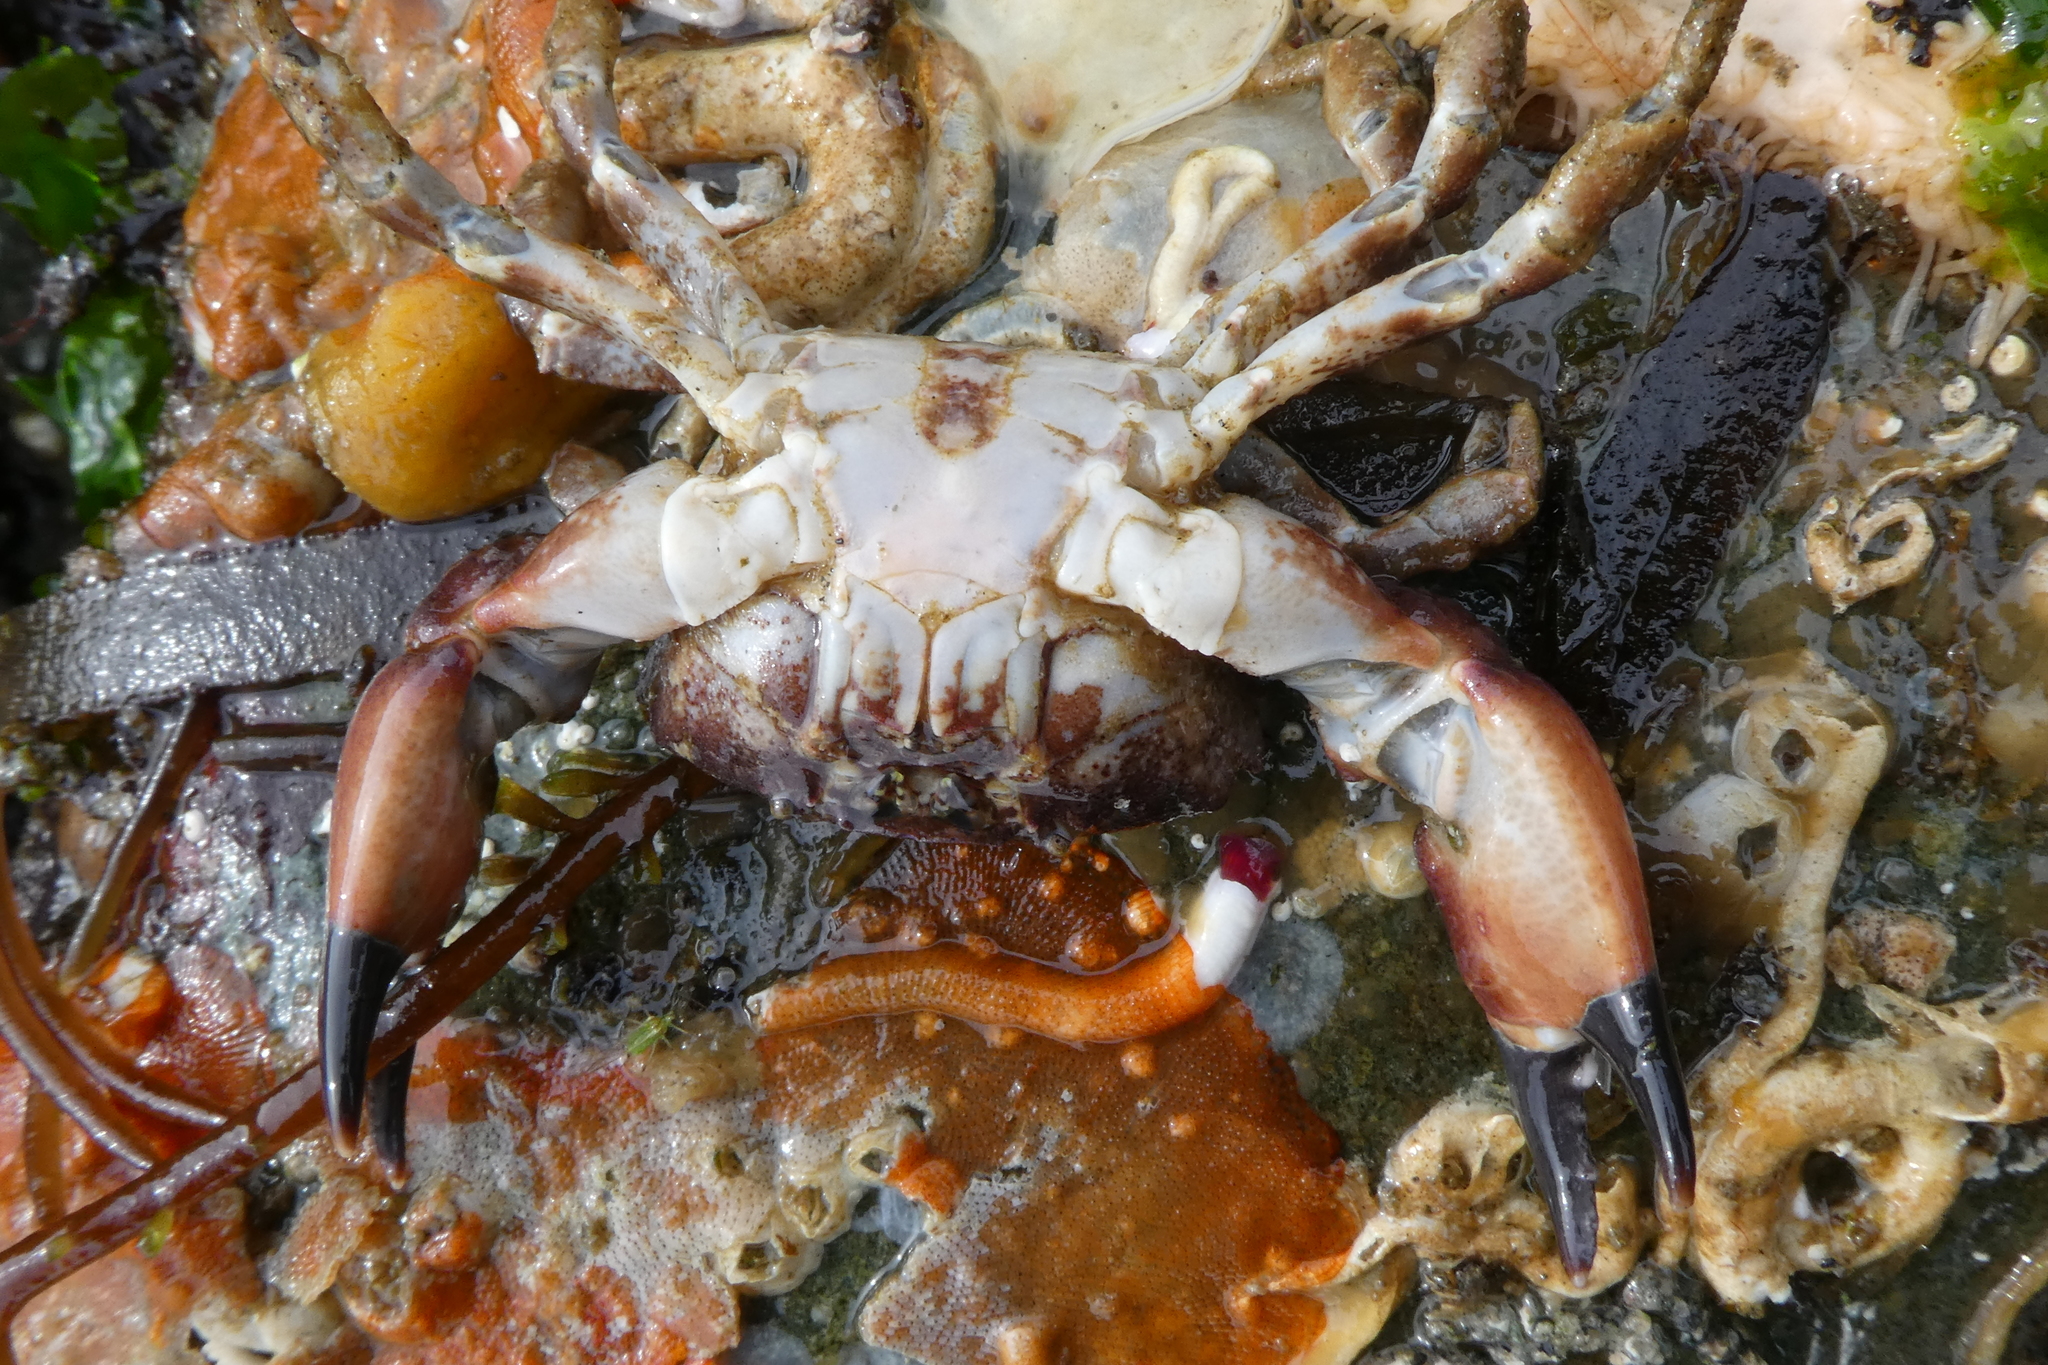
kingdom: Animalia
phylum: Arthropoda
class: Malacostraca
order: Decapoda
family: Panopeidae
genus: Lophopanopeus
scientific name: Lophopanopeus bellus
